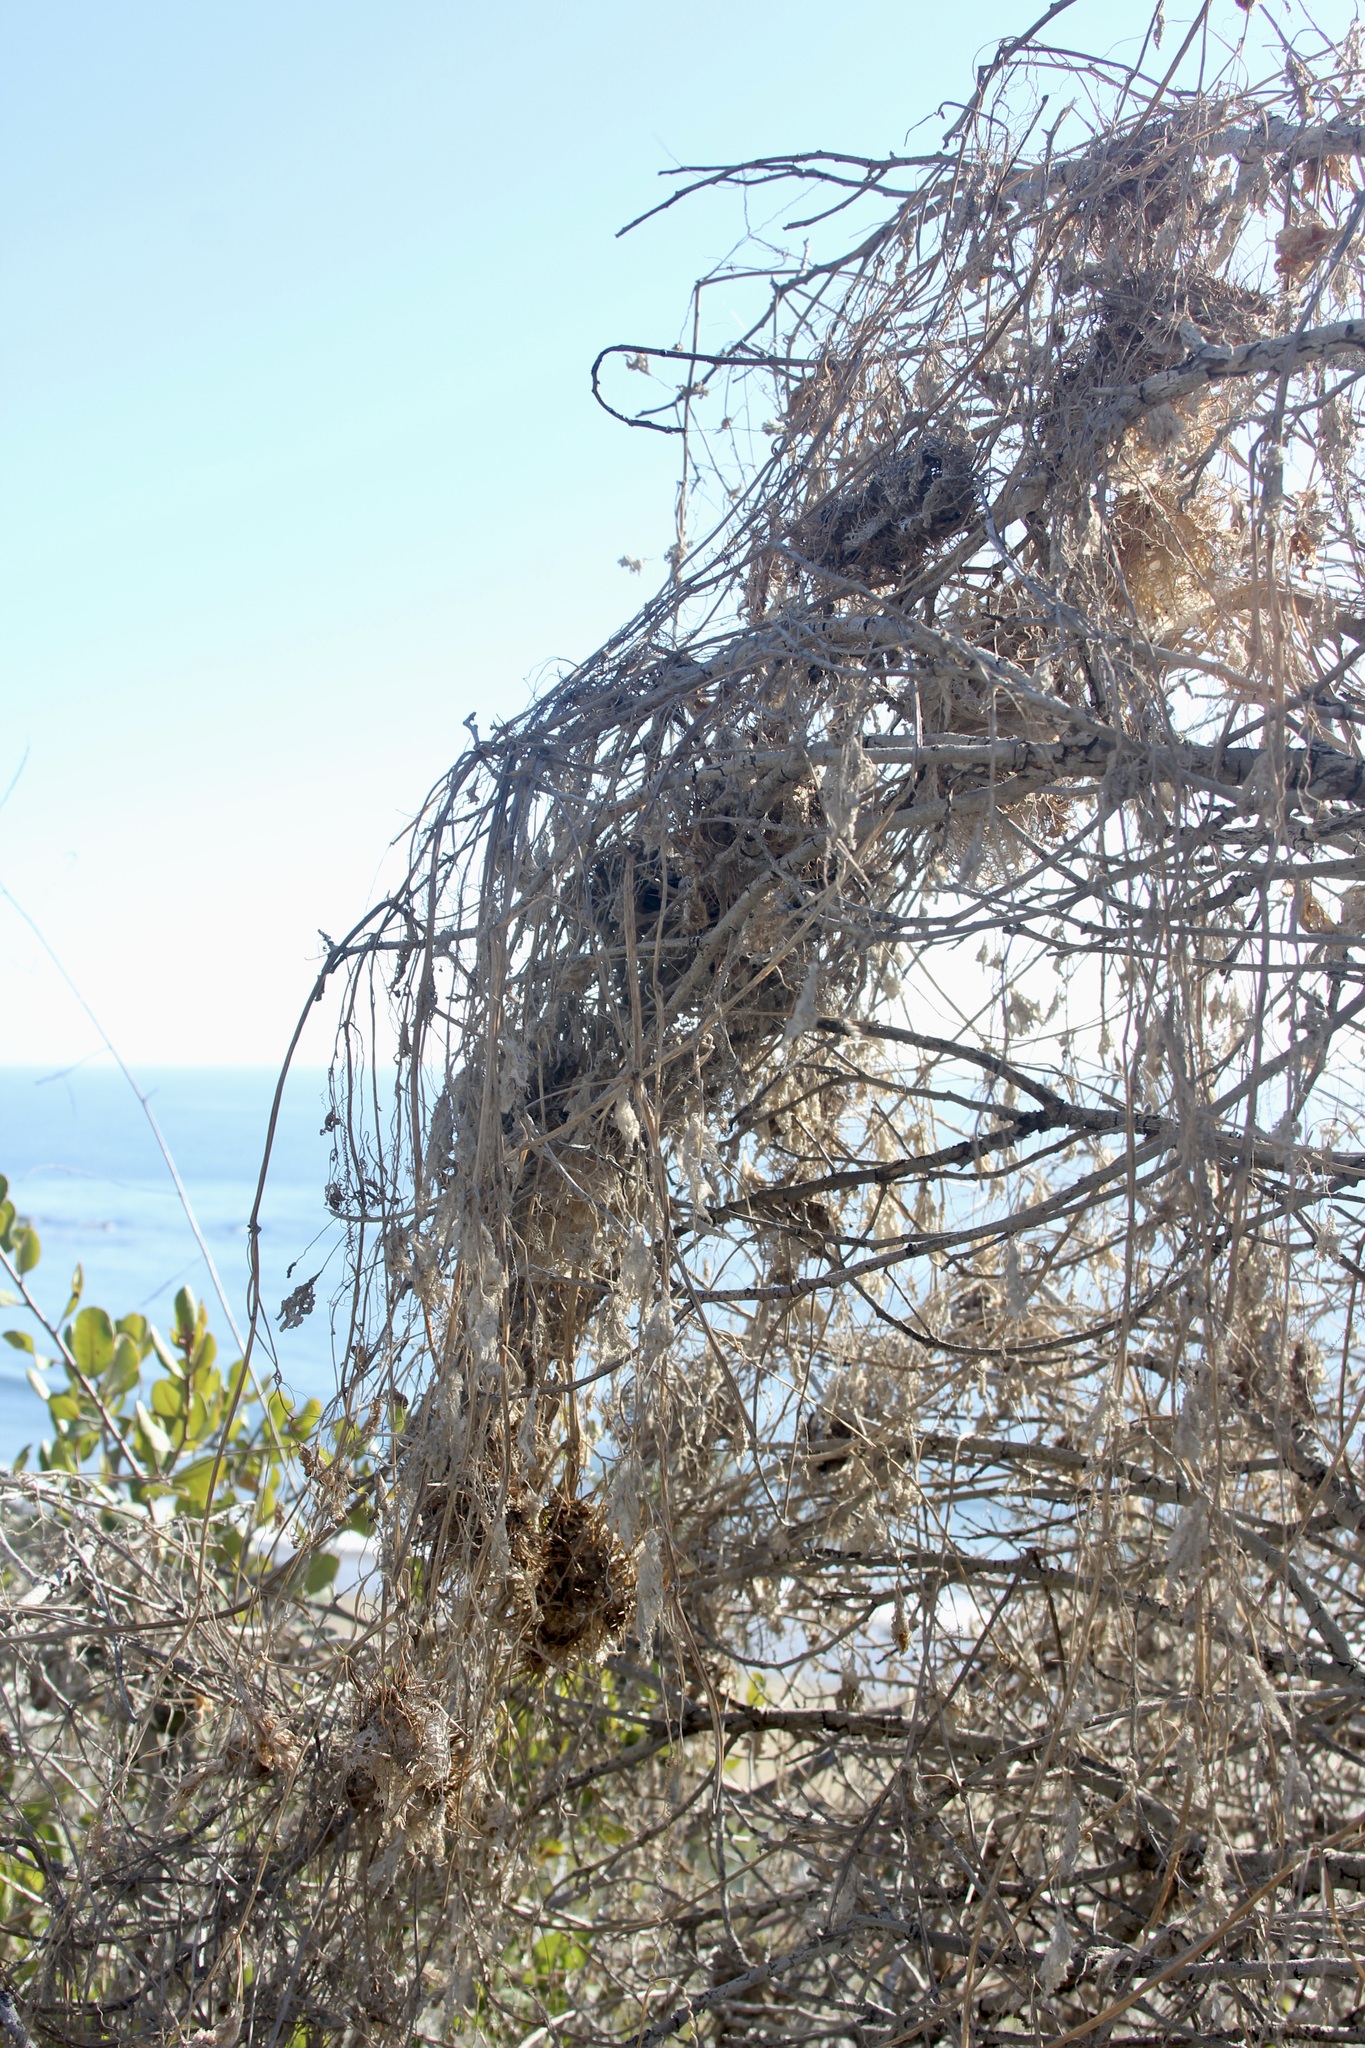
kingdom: Plantae
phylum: Tracheophyta
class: Magnoliopsida
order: Cucurbitales
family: Cucurbitaceae
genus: Marah
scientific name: Marah macrocarpa
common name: Cucamonga manroot
